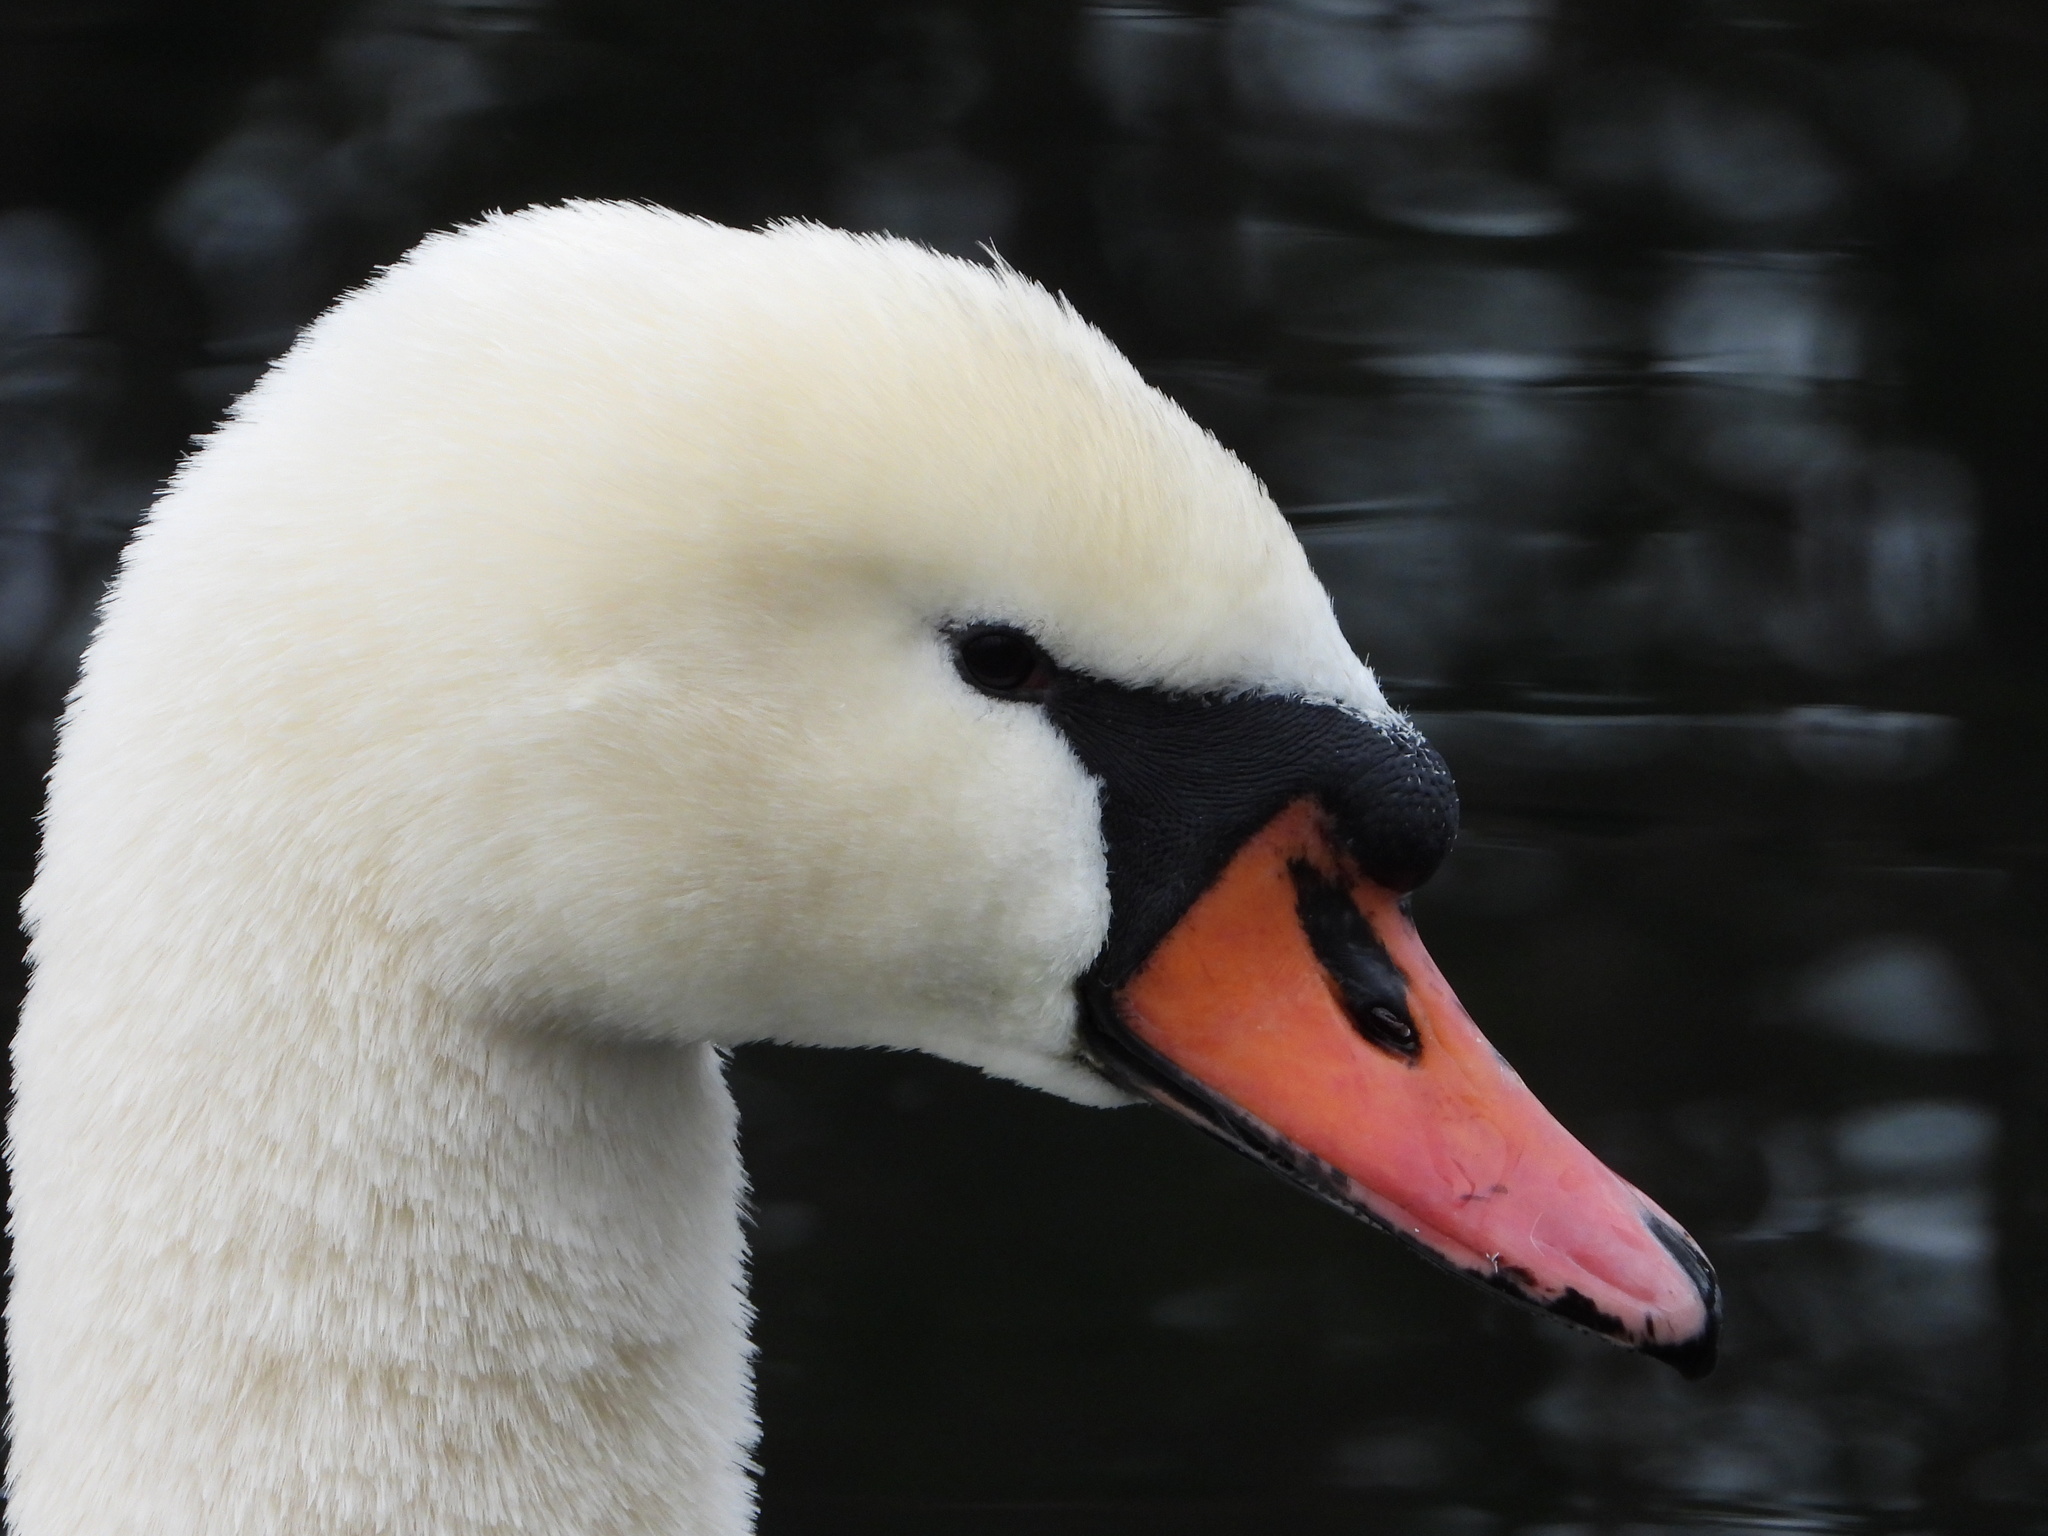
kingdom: Animalia
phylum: Chordata
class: Aves
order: Anseriformes
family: Anatidae
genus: Cygnus
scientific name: Cygnus olor
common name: Mute swan
